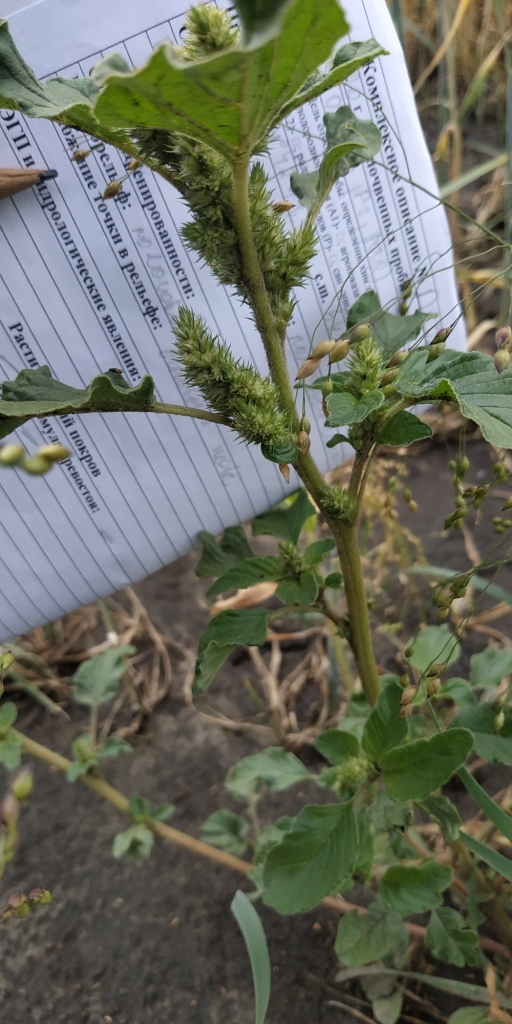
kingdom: Plantae
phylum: Tracheophyta
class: Magnoliopsida
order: Caryophyllales
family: Amaranthaceae
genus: Amaranthus
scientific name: Amaranthus retroflexus
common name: Redroot amaranth
